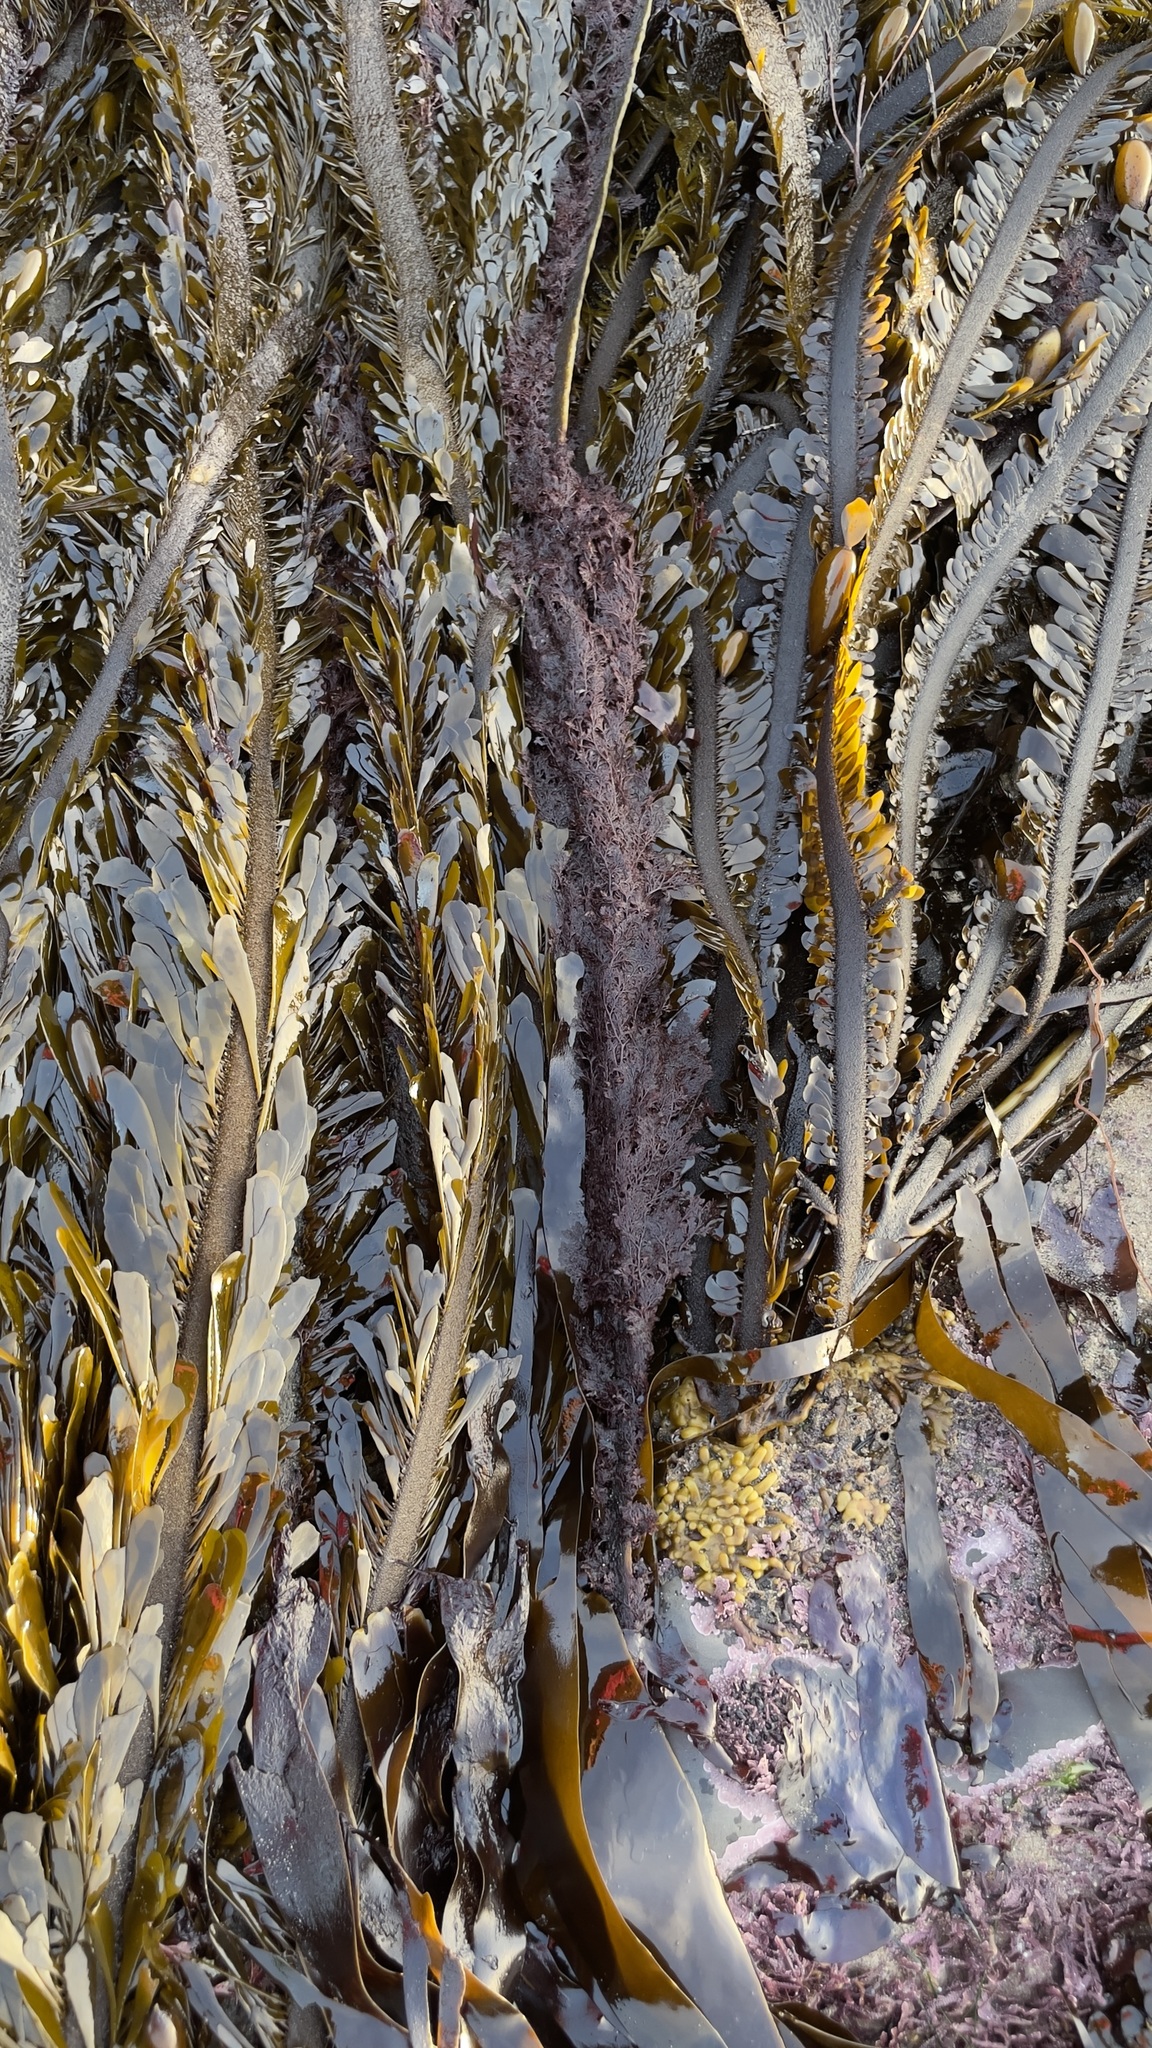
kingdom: Chromista
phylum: Ochrophyta
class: Phaeophyceae
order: Laminariales
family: Lessoniaceae
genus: Egregia
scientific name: Egregia menziesii
